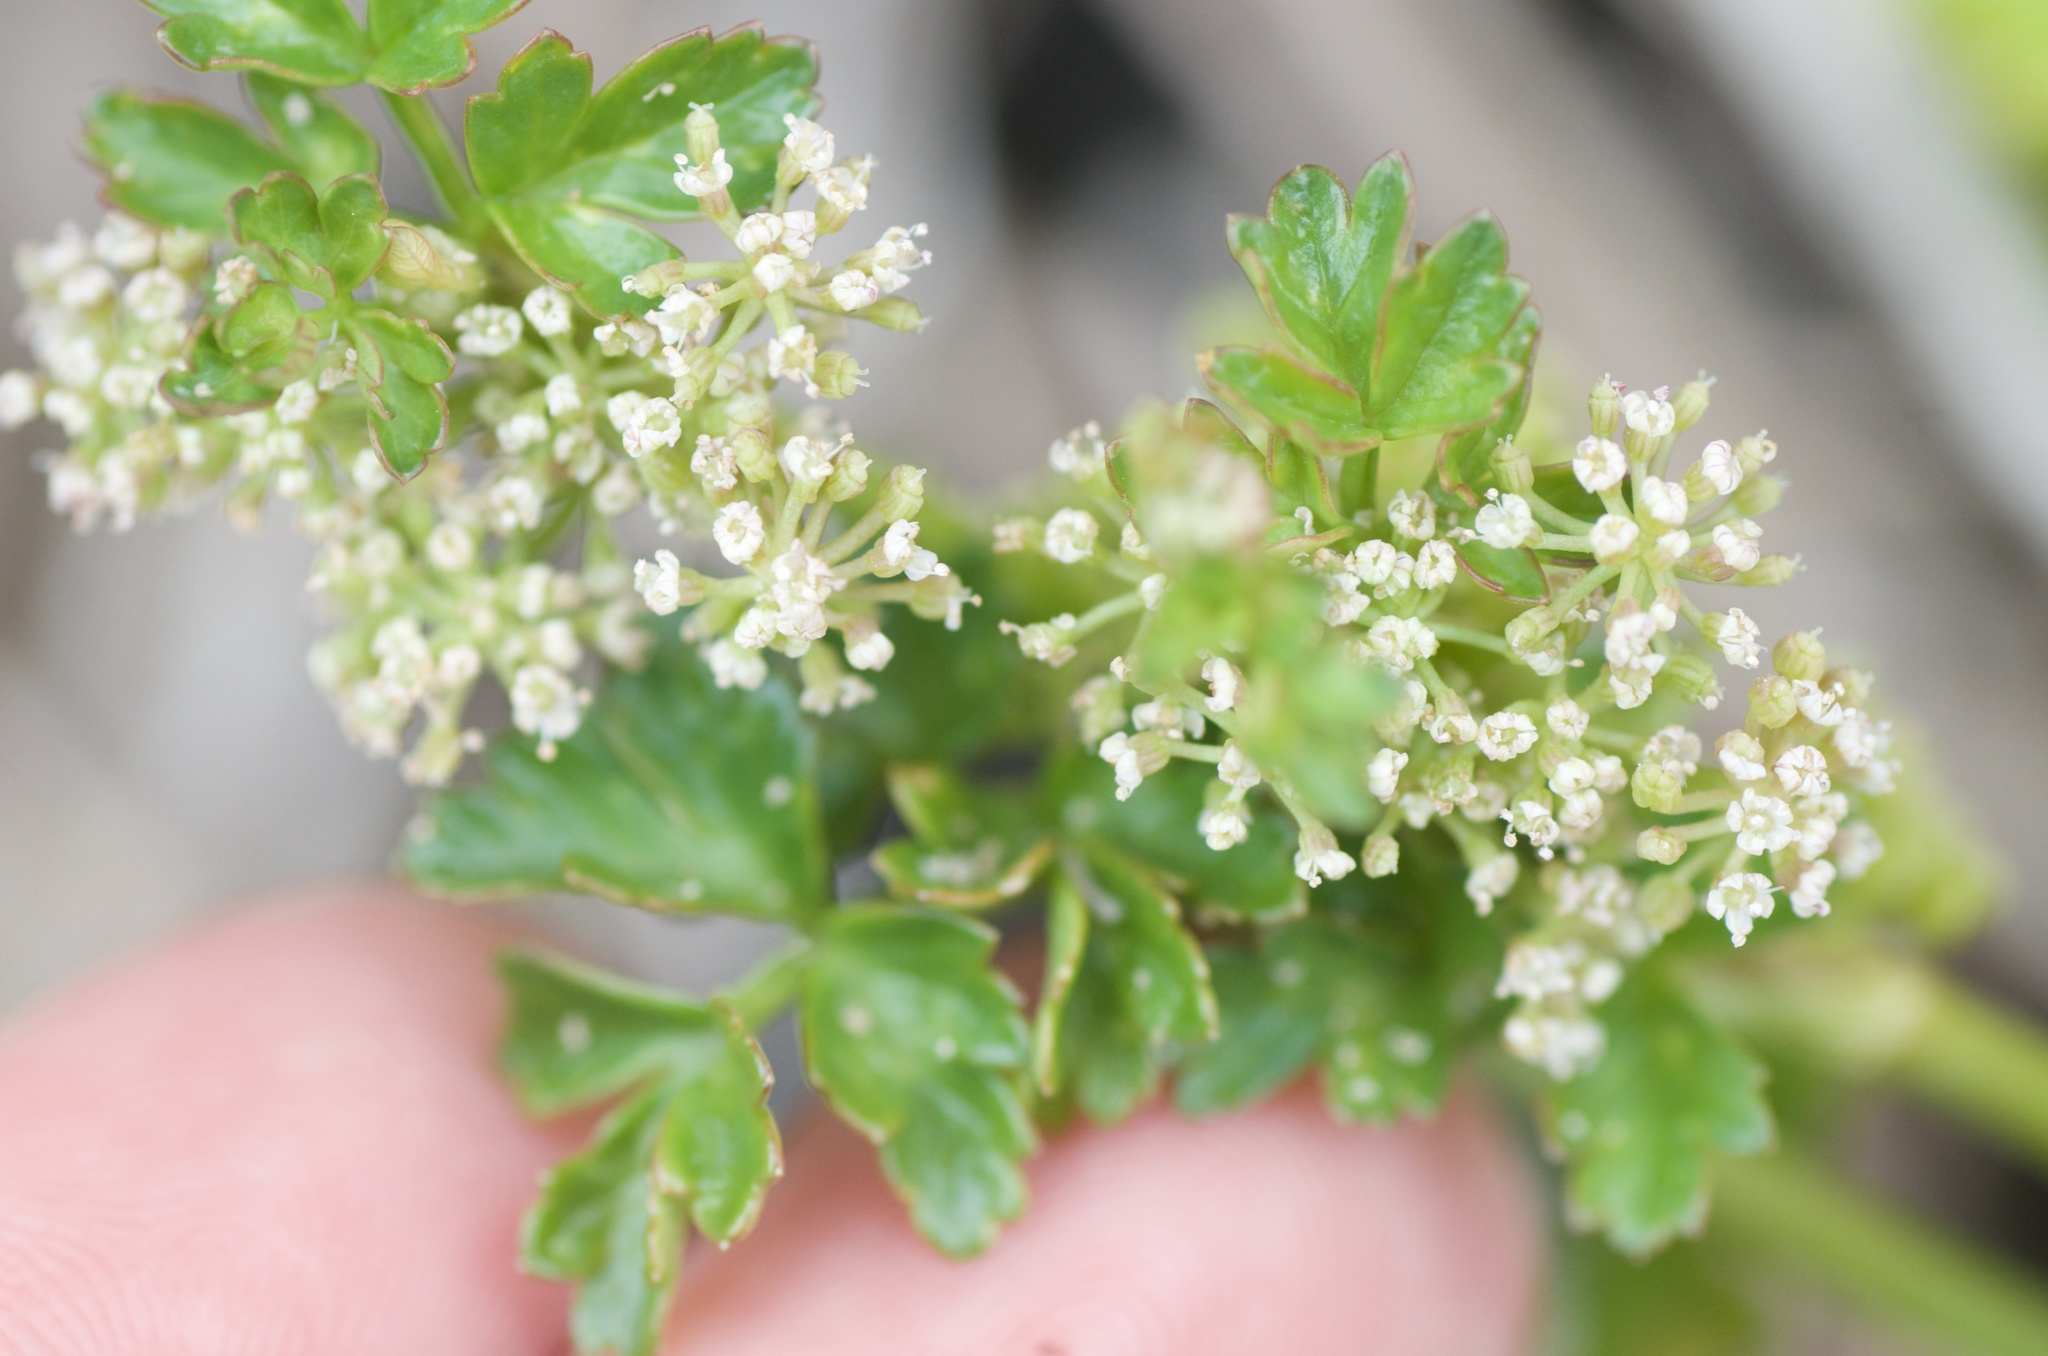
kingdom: Plantae
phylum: Tracheophyta
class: Magnoliopsida
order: Apiales
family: Apiaceae
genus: Apium
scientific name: Apium prostratum
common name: Prostrate marshwort
